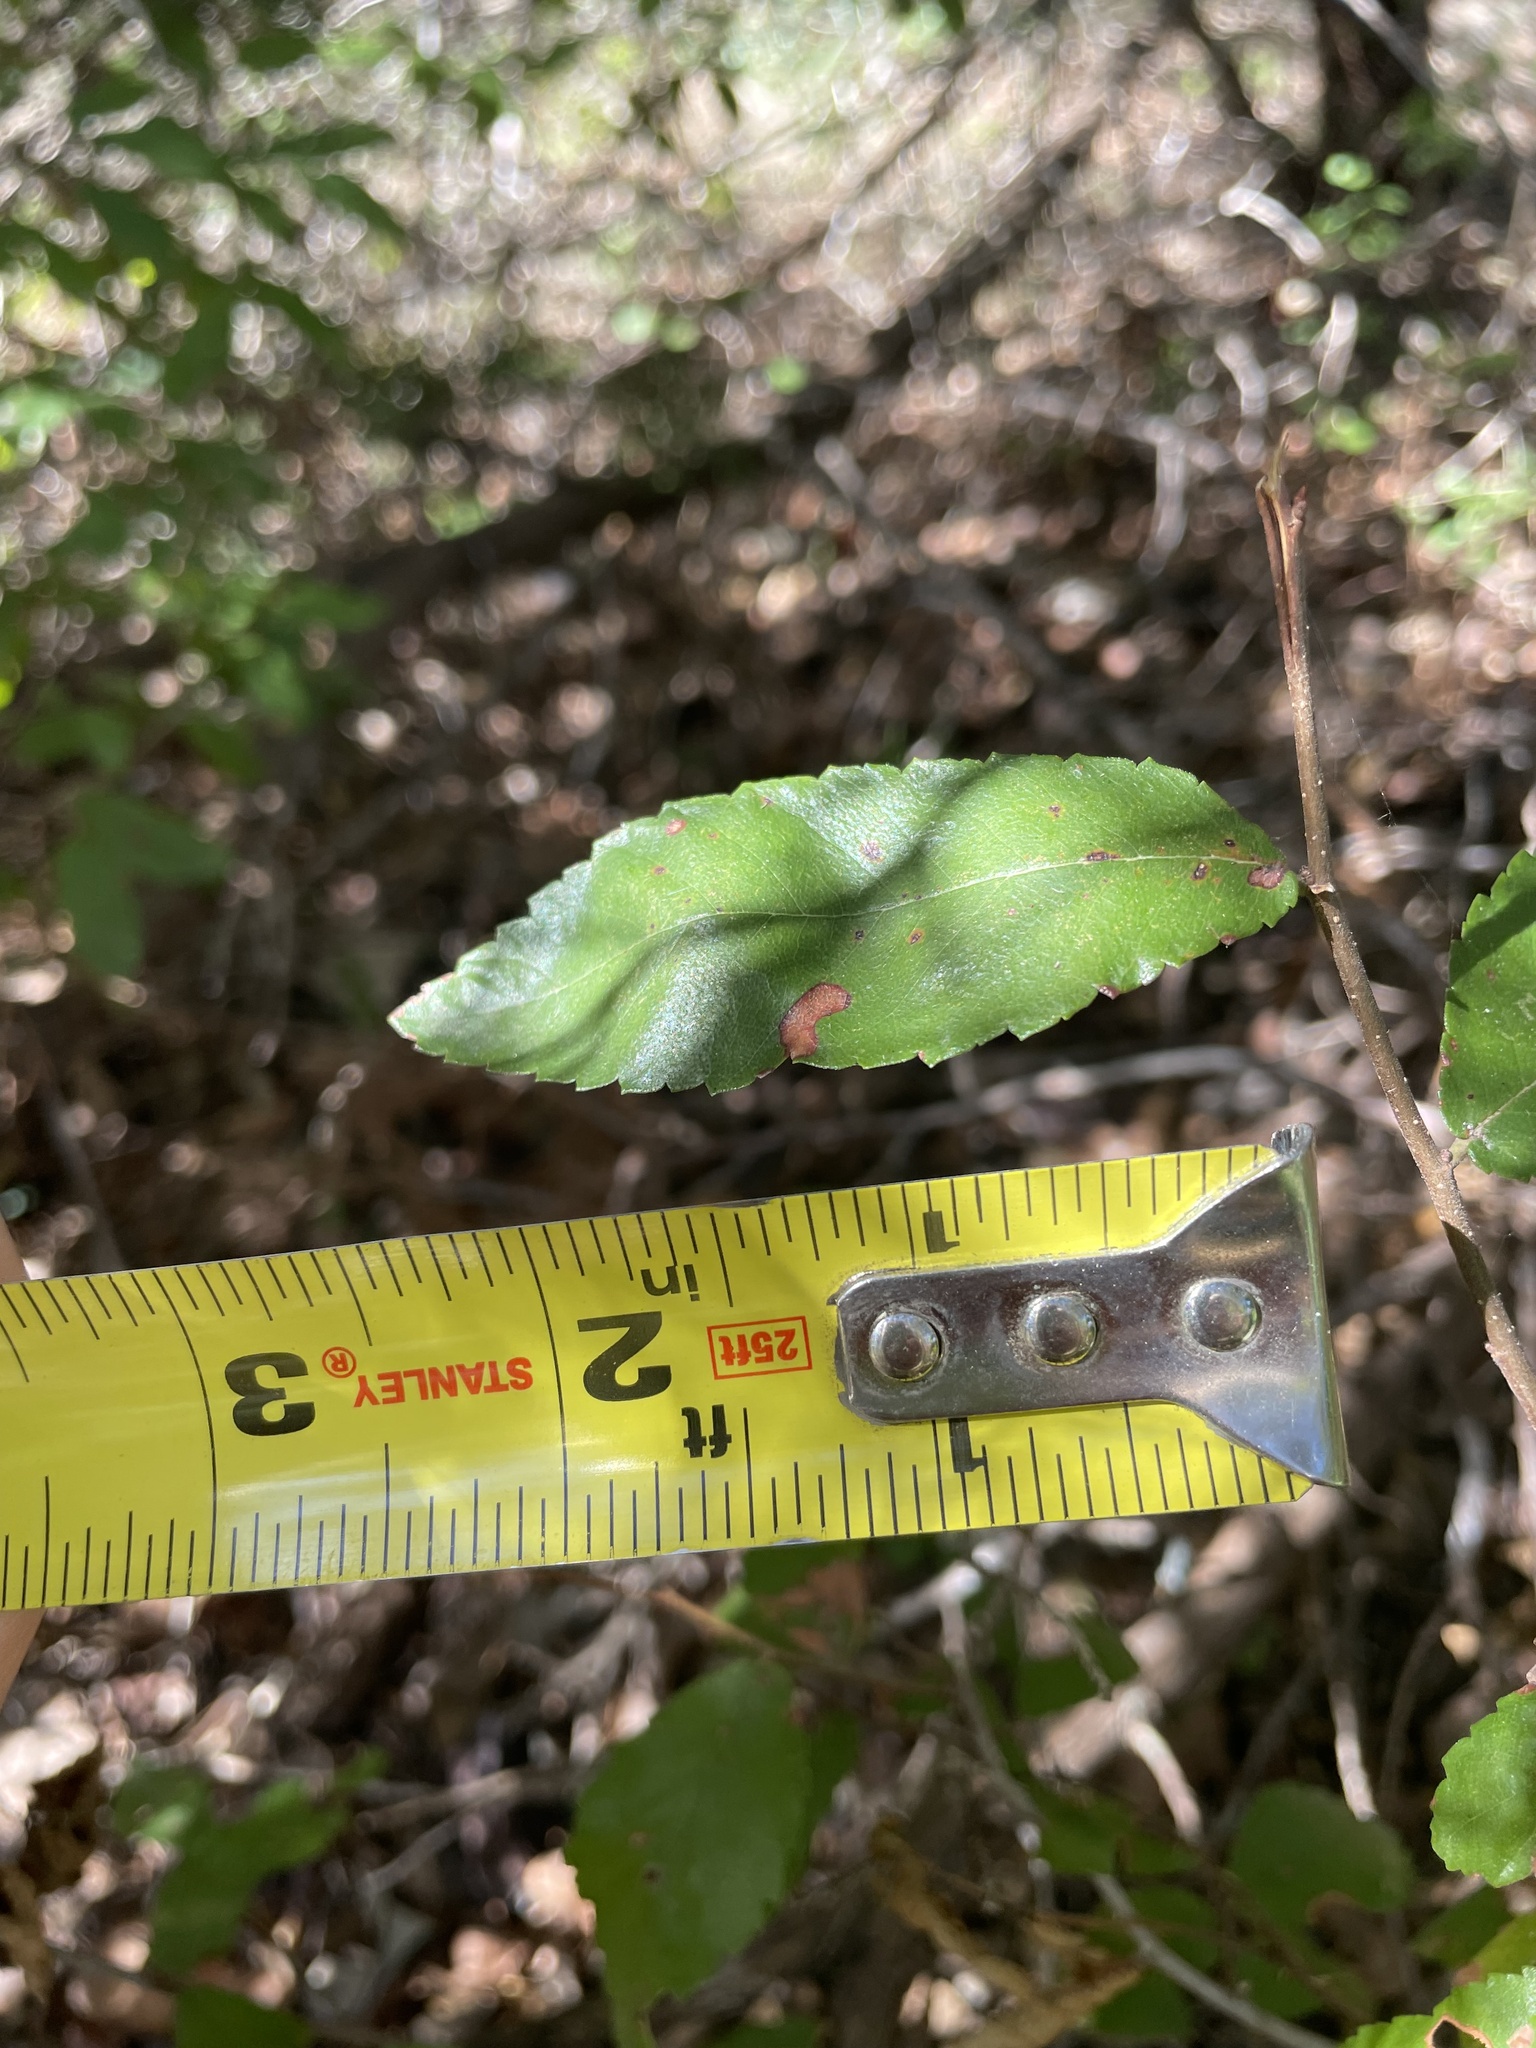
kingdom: Plantae
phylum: Tracheophyta
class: Magnoliopsida
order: Rosales
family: Ulmaceae
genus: Ulmus
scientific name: Ulmus crassifolia
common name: Basket elm
